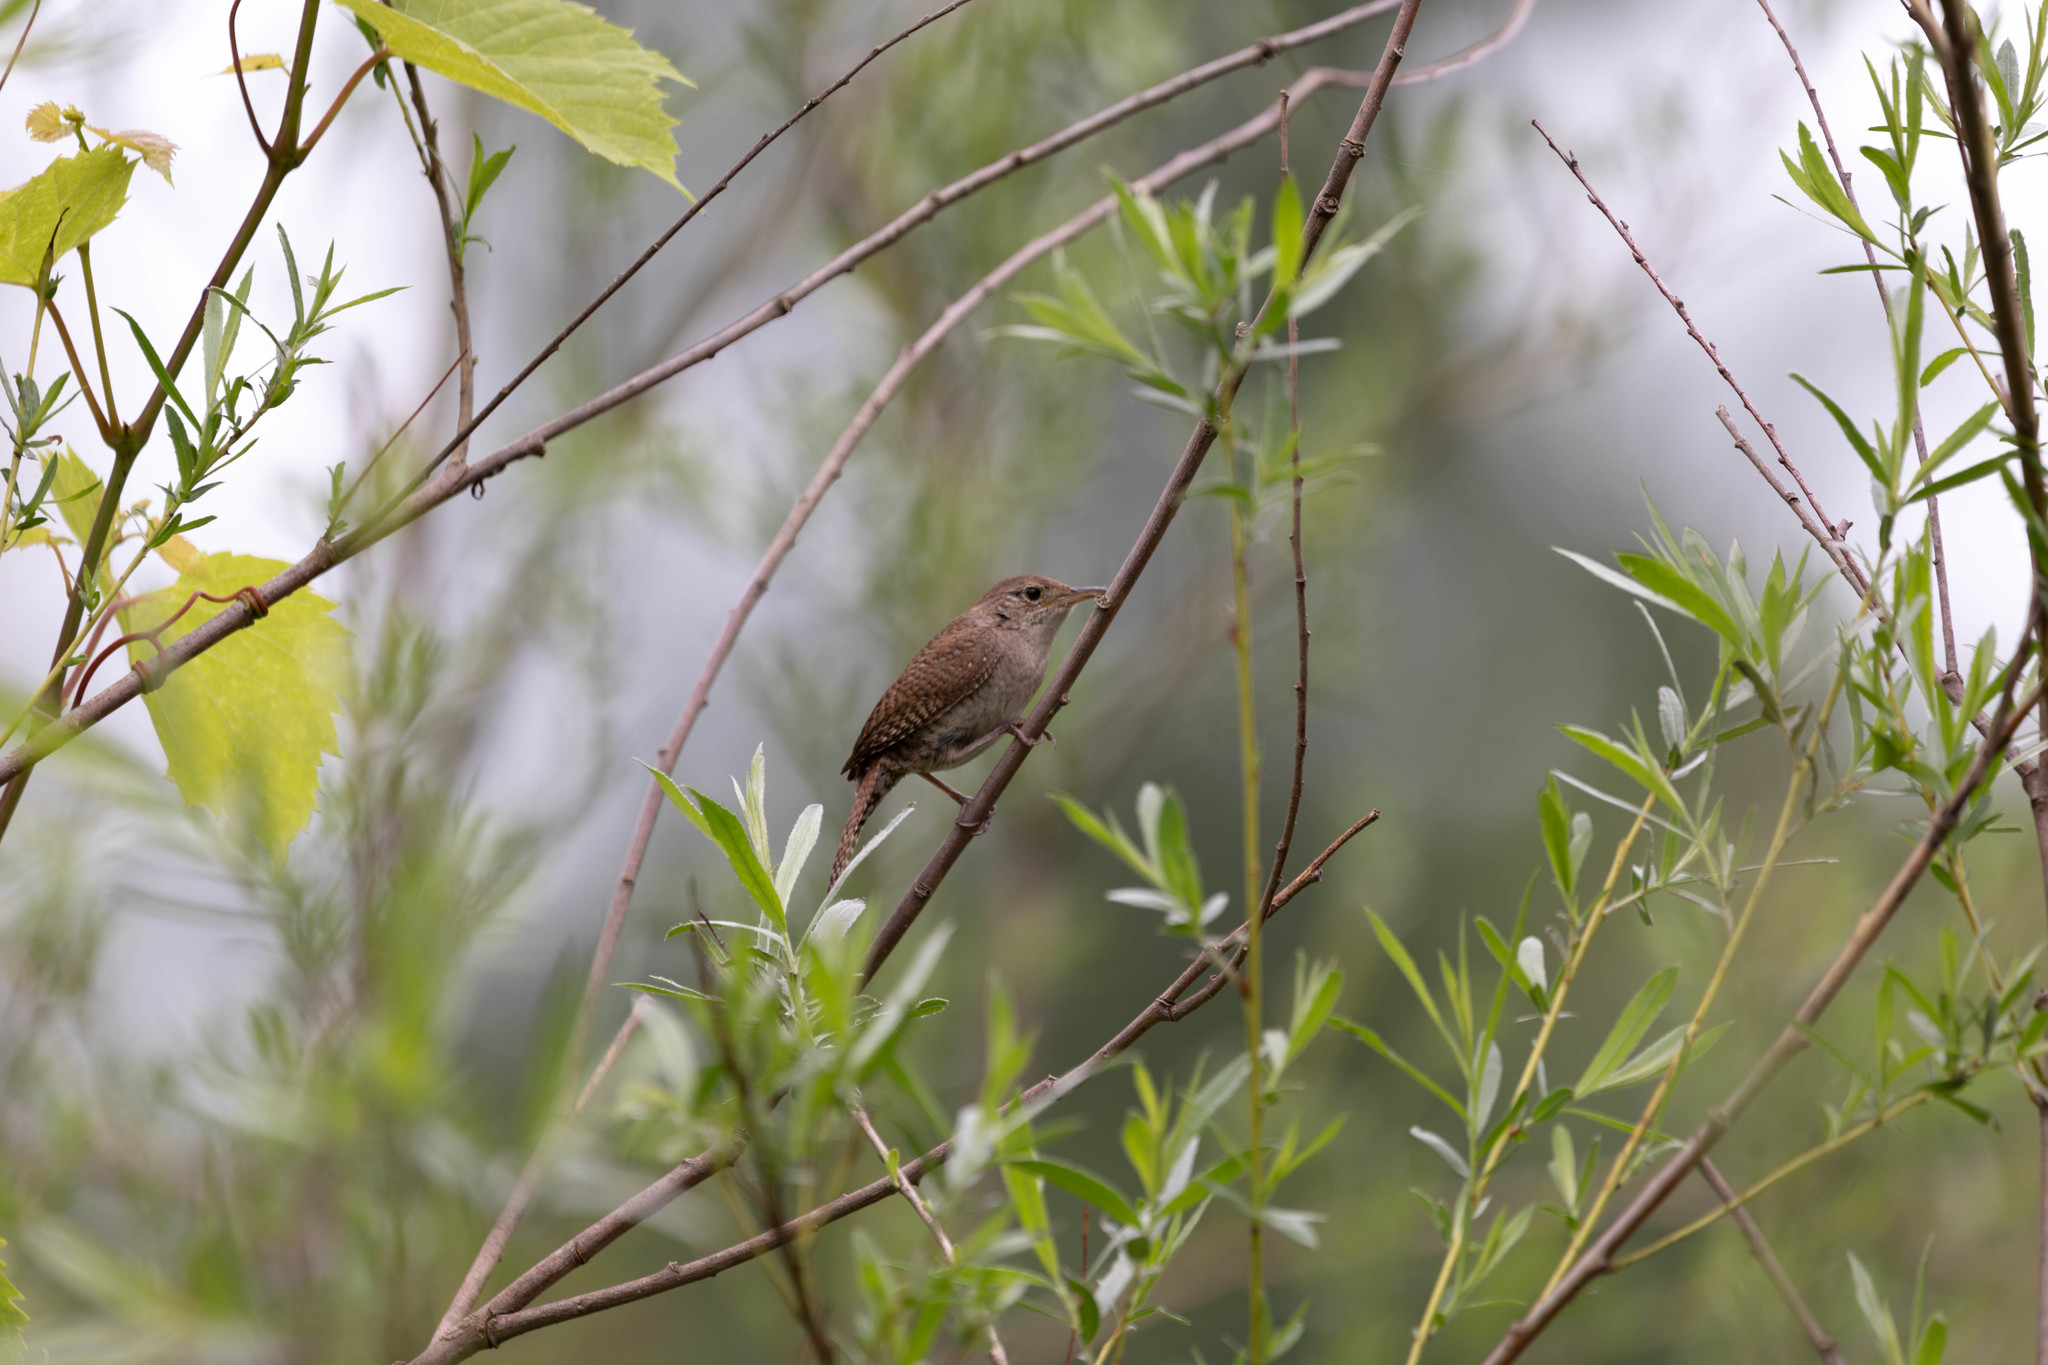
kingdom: Animalia
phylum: Chordata
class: Aves
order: Passeriformes
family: Troglodytidae
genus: Troglodytes
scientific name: Troglodytes aedon
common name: House wren
